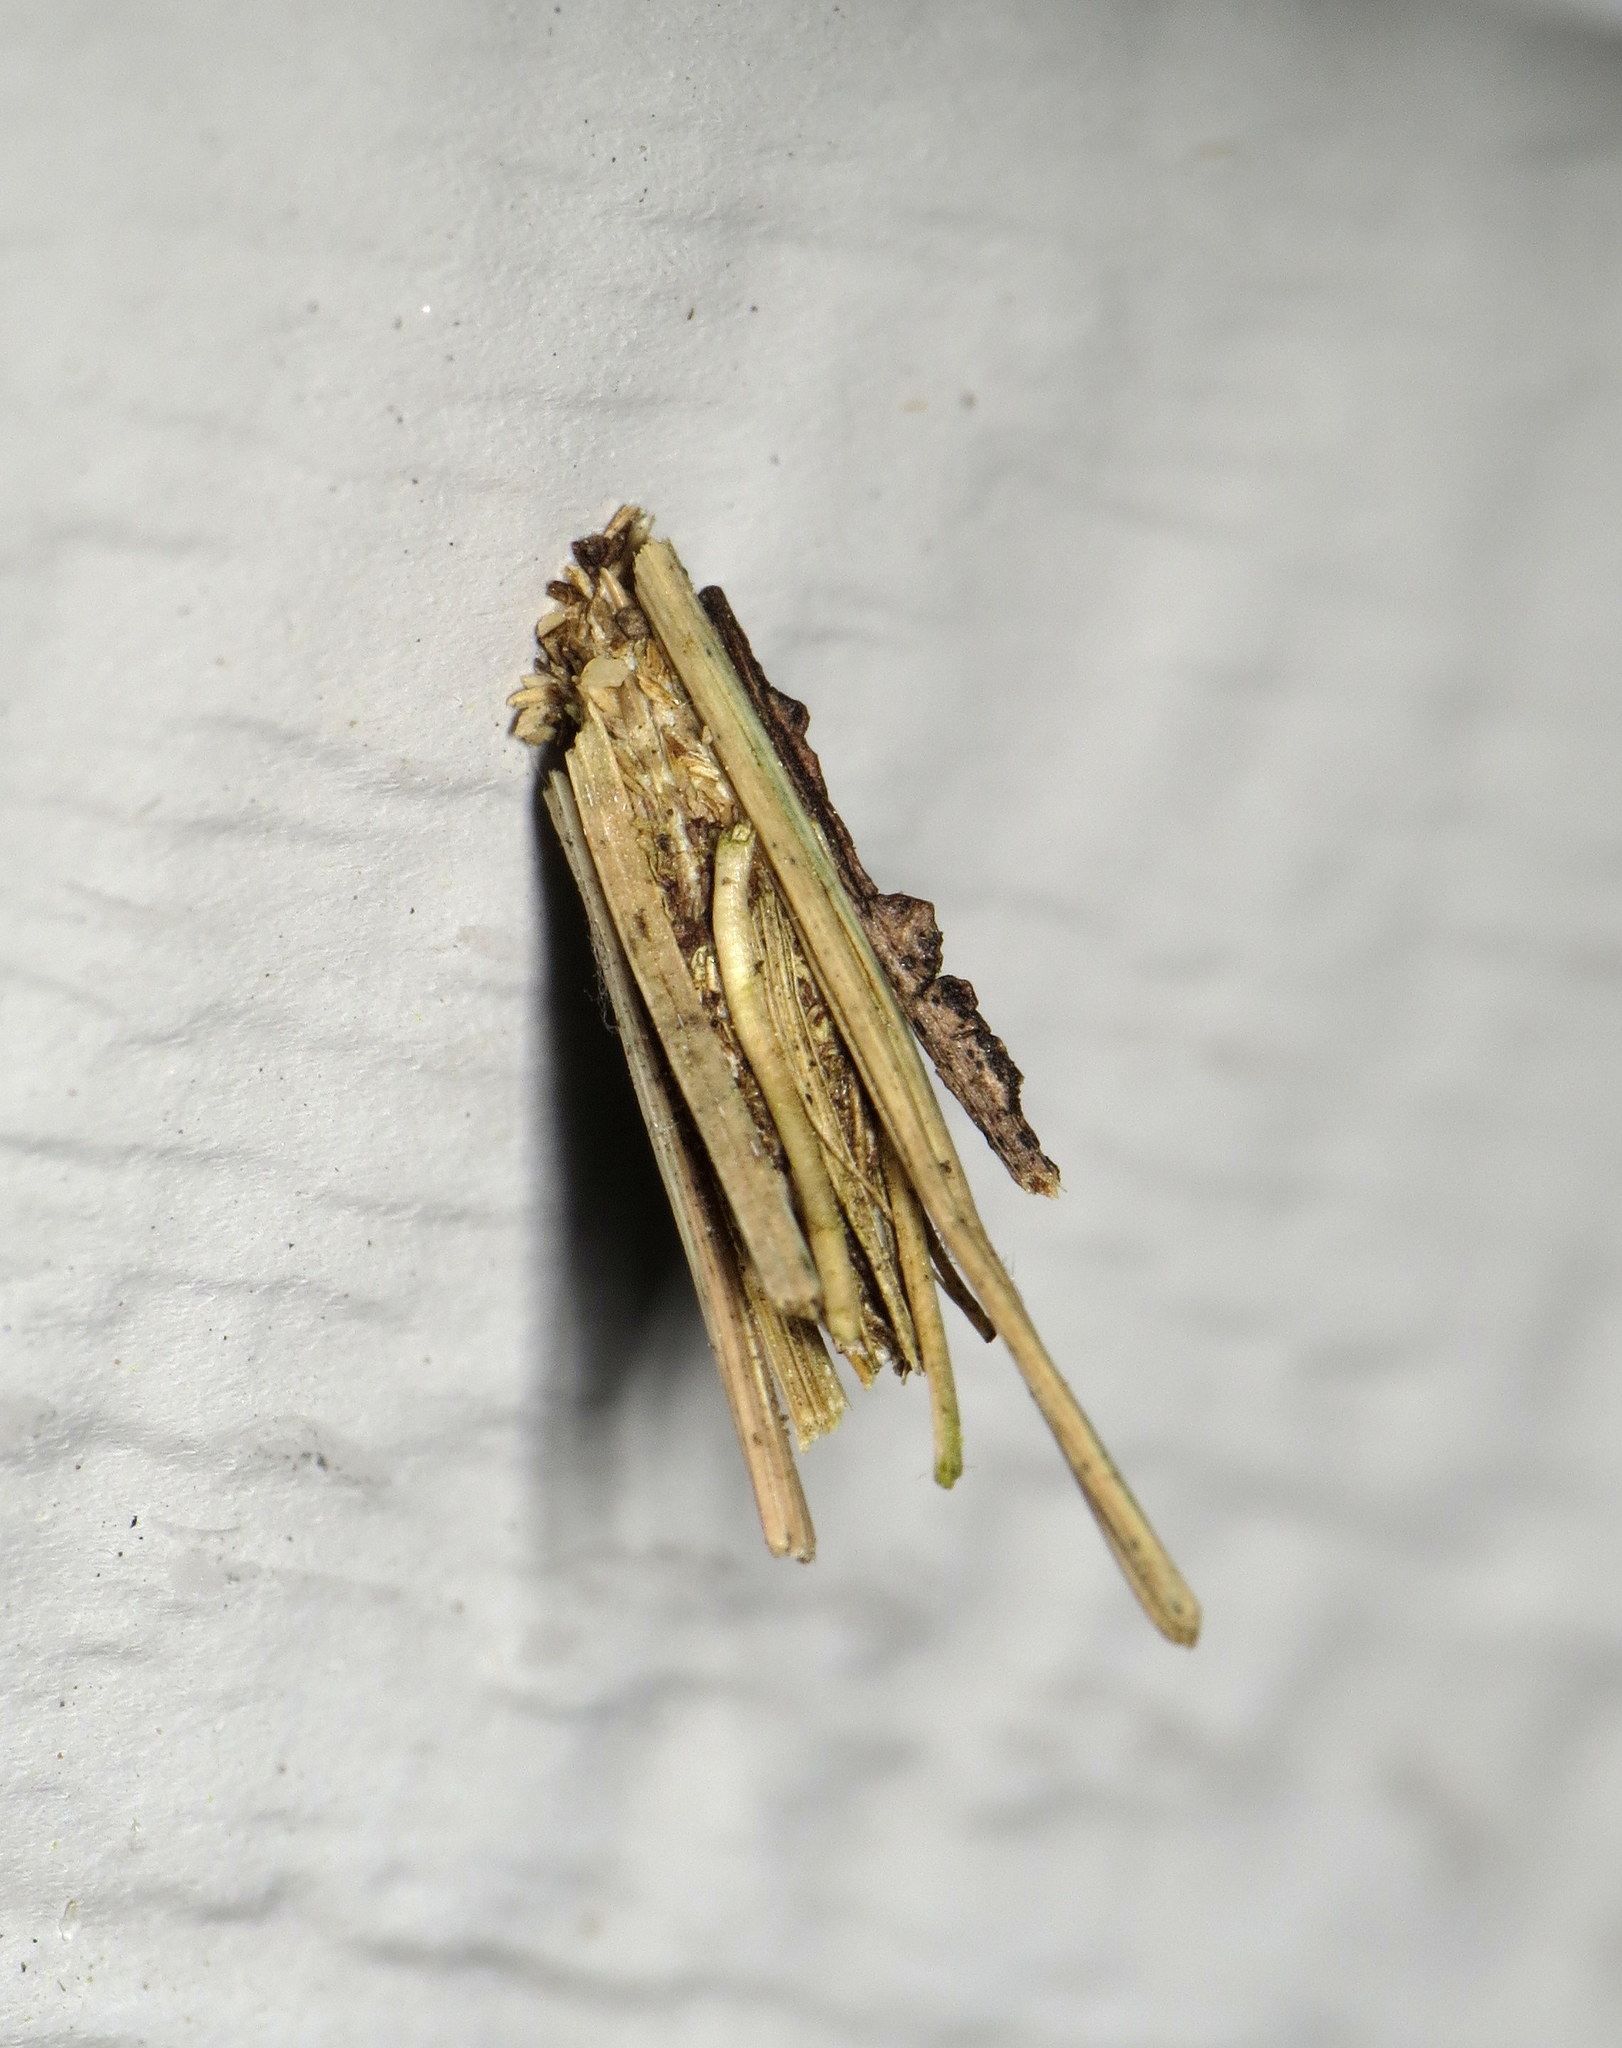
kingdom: Animalia
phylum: Arthropoda
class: Insecta
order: Lepidoptera
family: Psychidae
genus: Psyche
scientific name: Psyche casta
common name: Common sweep
